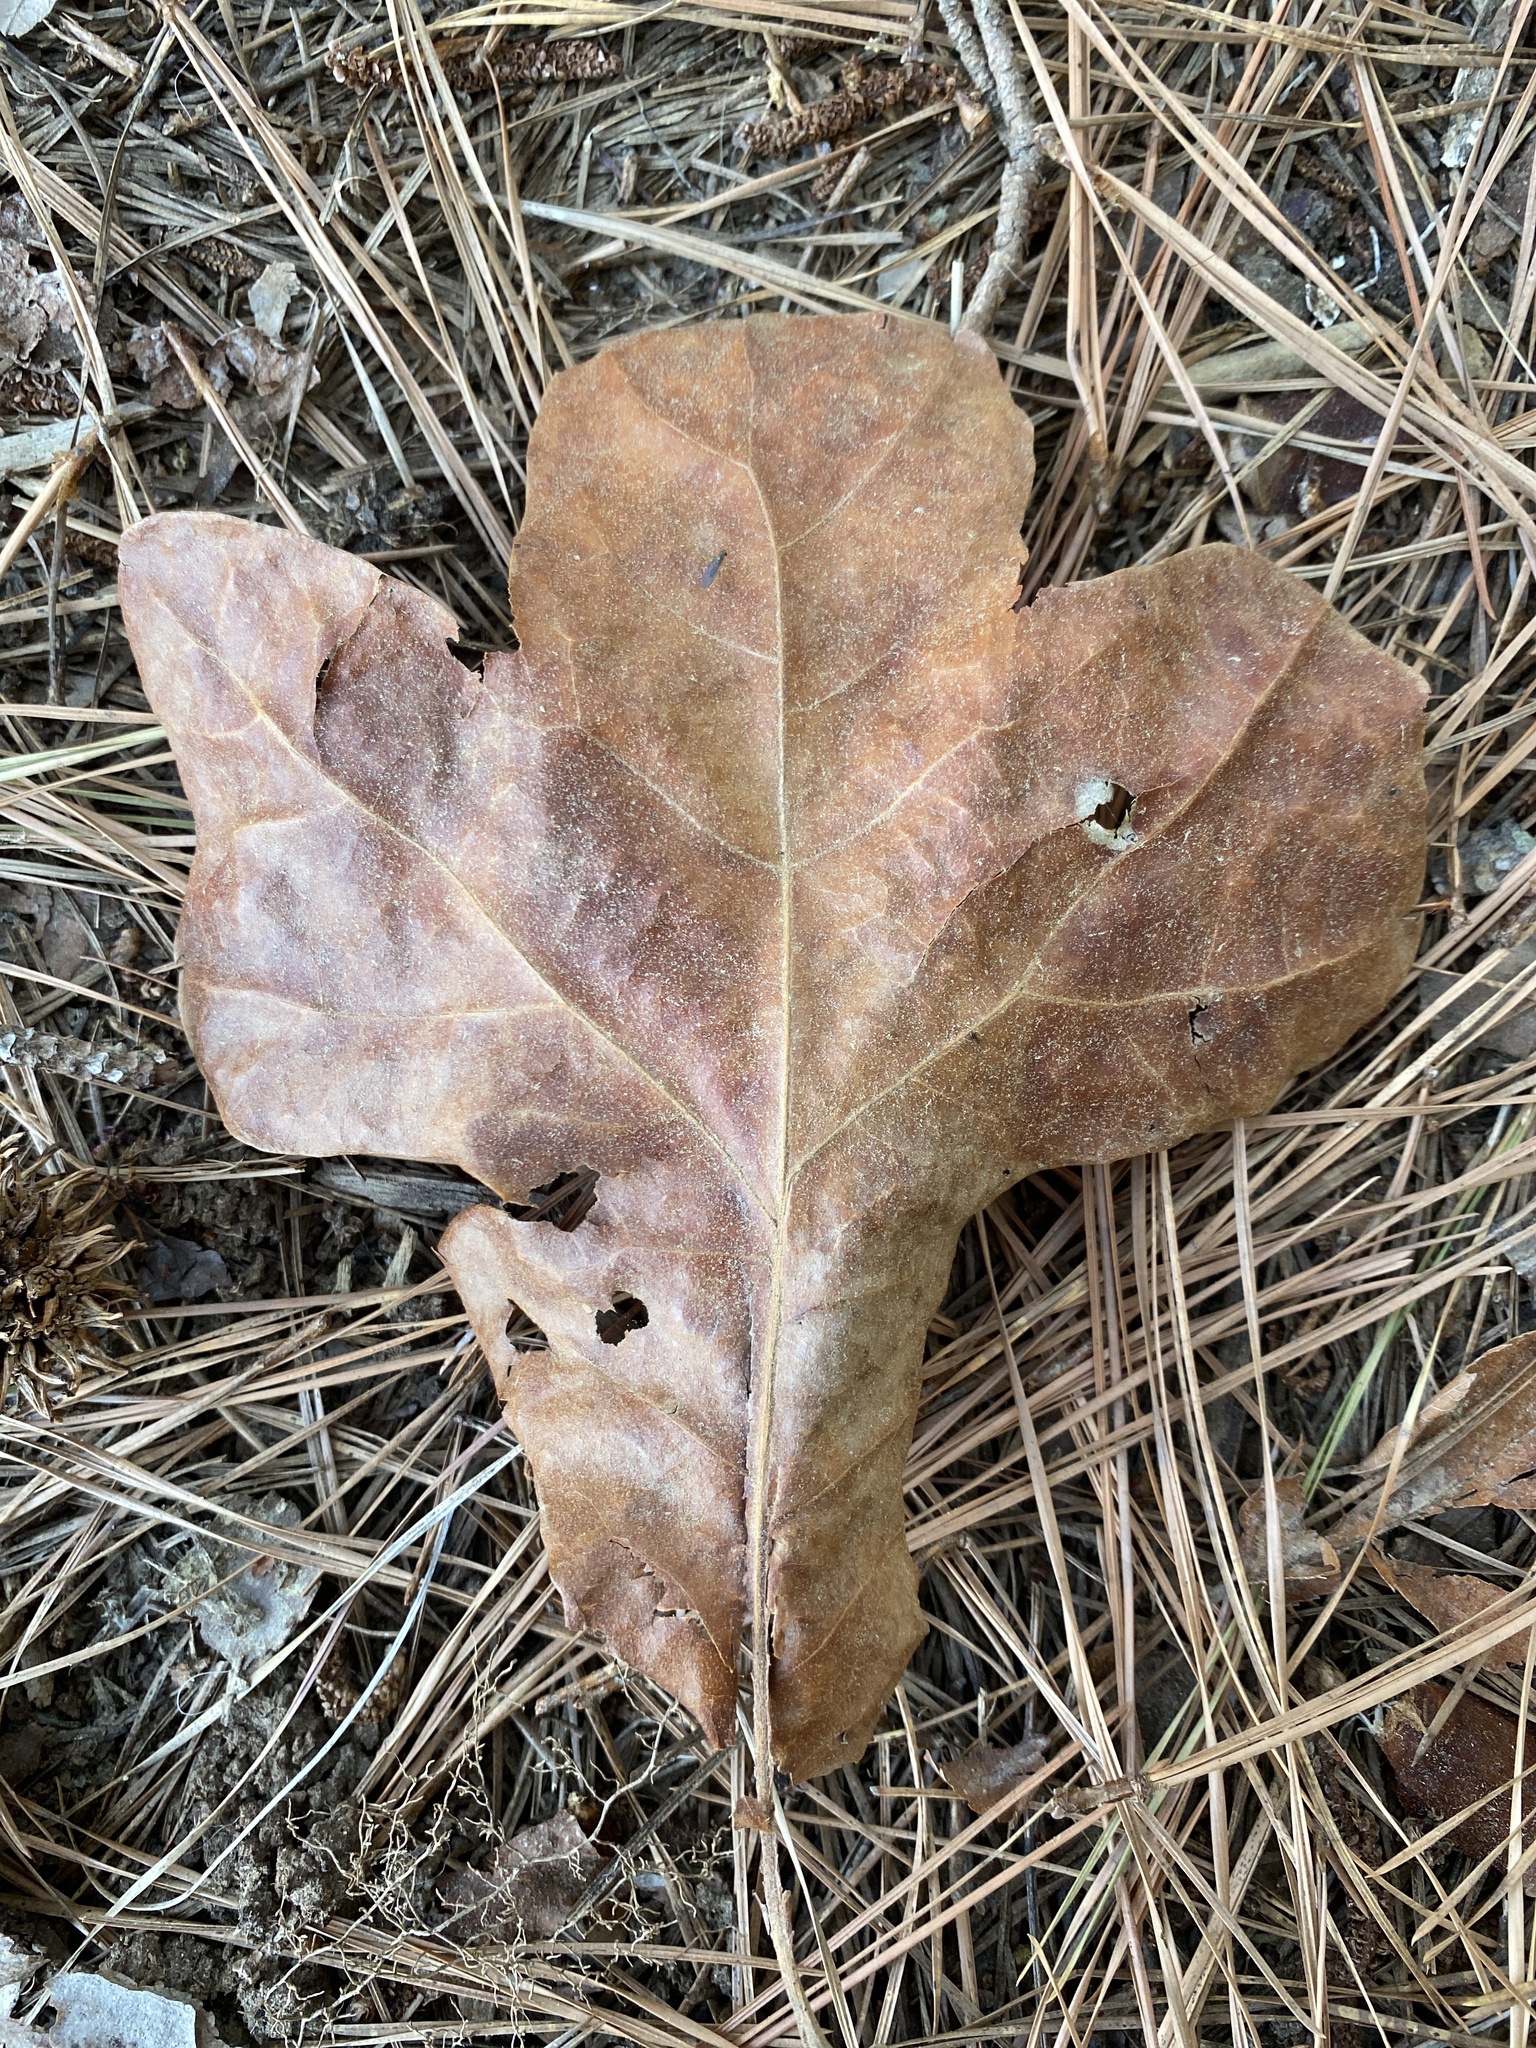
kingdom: Plantae
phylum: Tracheophyta
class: Magnoliopsida
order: Fagales
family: Fagaceae
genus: Quercus
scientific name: Quercus stellata
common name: Post oak
